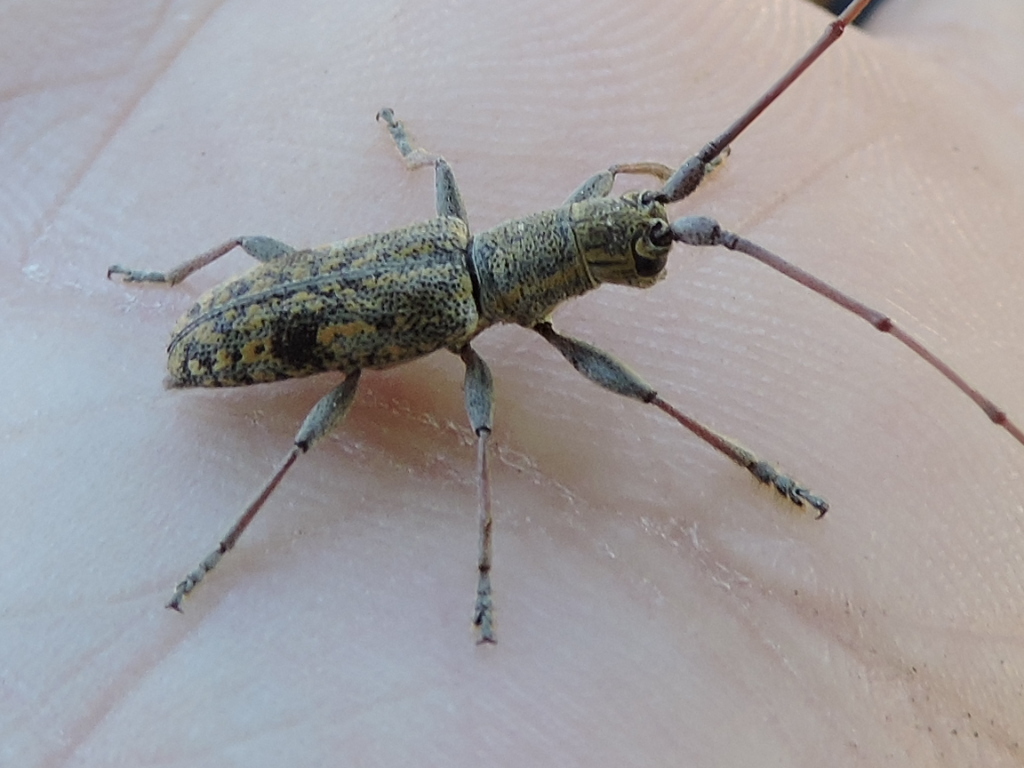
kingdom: Animalia
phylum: Arthropoda
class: Insecta
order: Coleoptera
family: Cerambycidae
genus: Dorcaschema
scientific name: Dorcaschema alternatum
